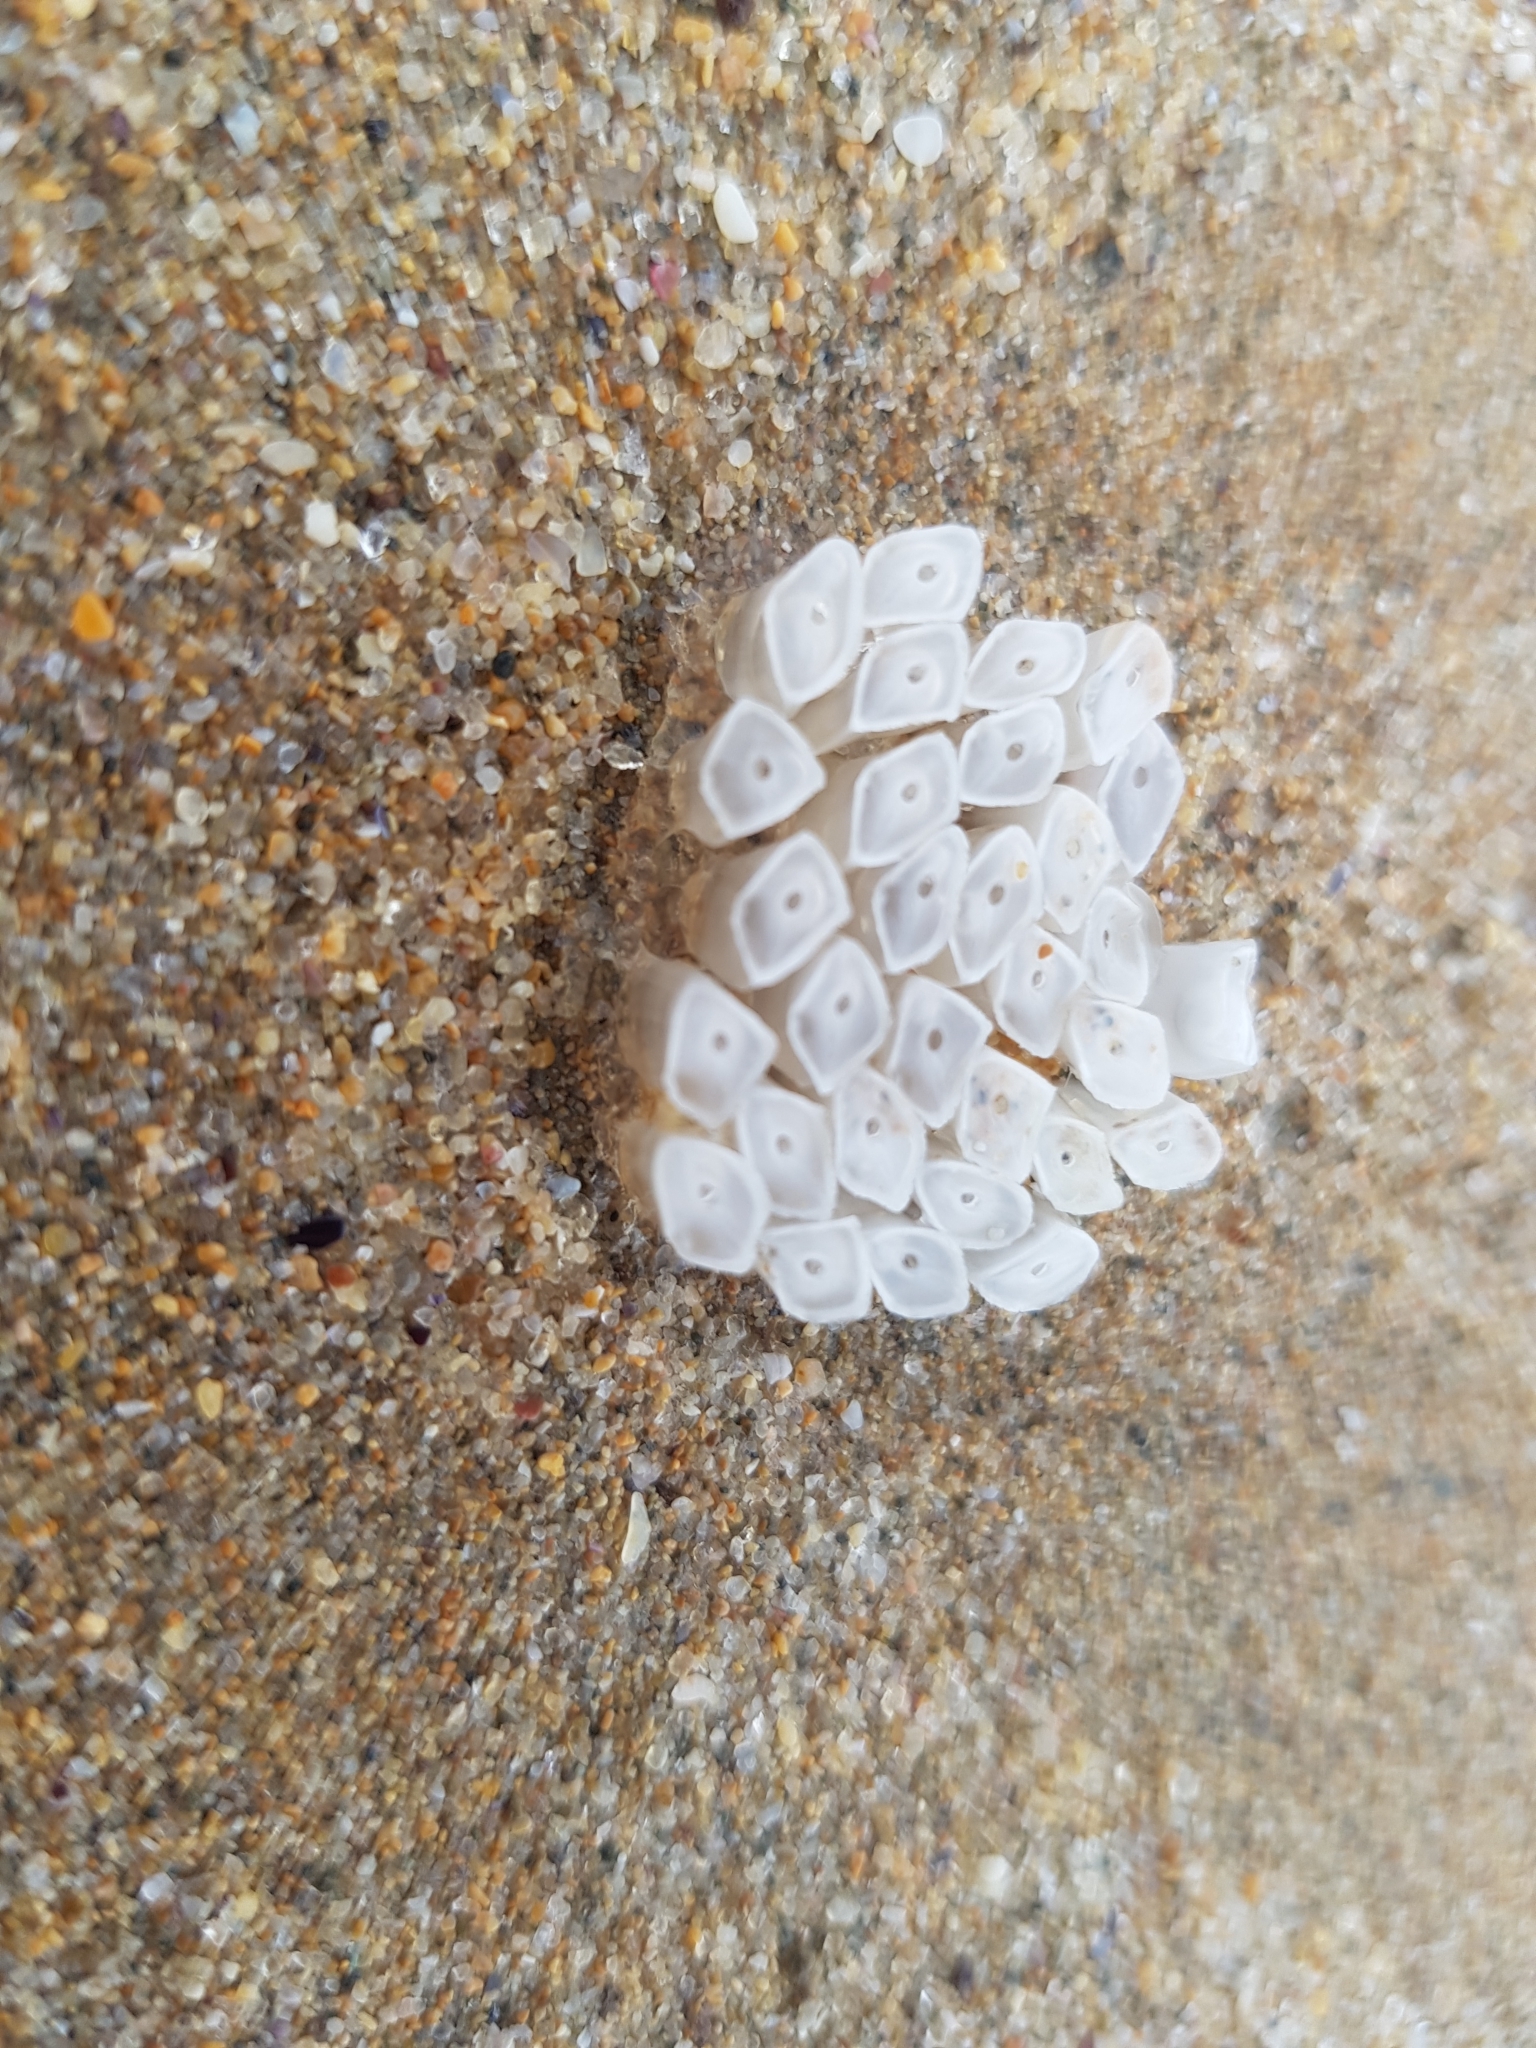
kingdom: Animalia
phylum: Mollusca
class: Gastropoda
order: Neogastropoda
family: Muricidae
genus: Dicathais
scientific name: Dicathais orbita
